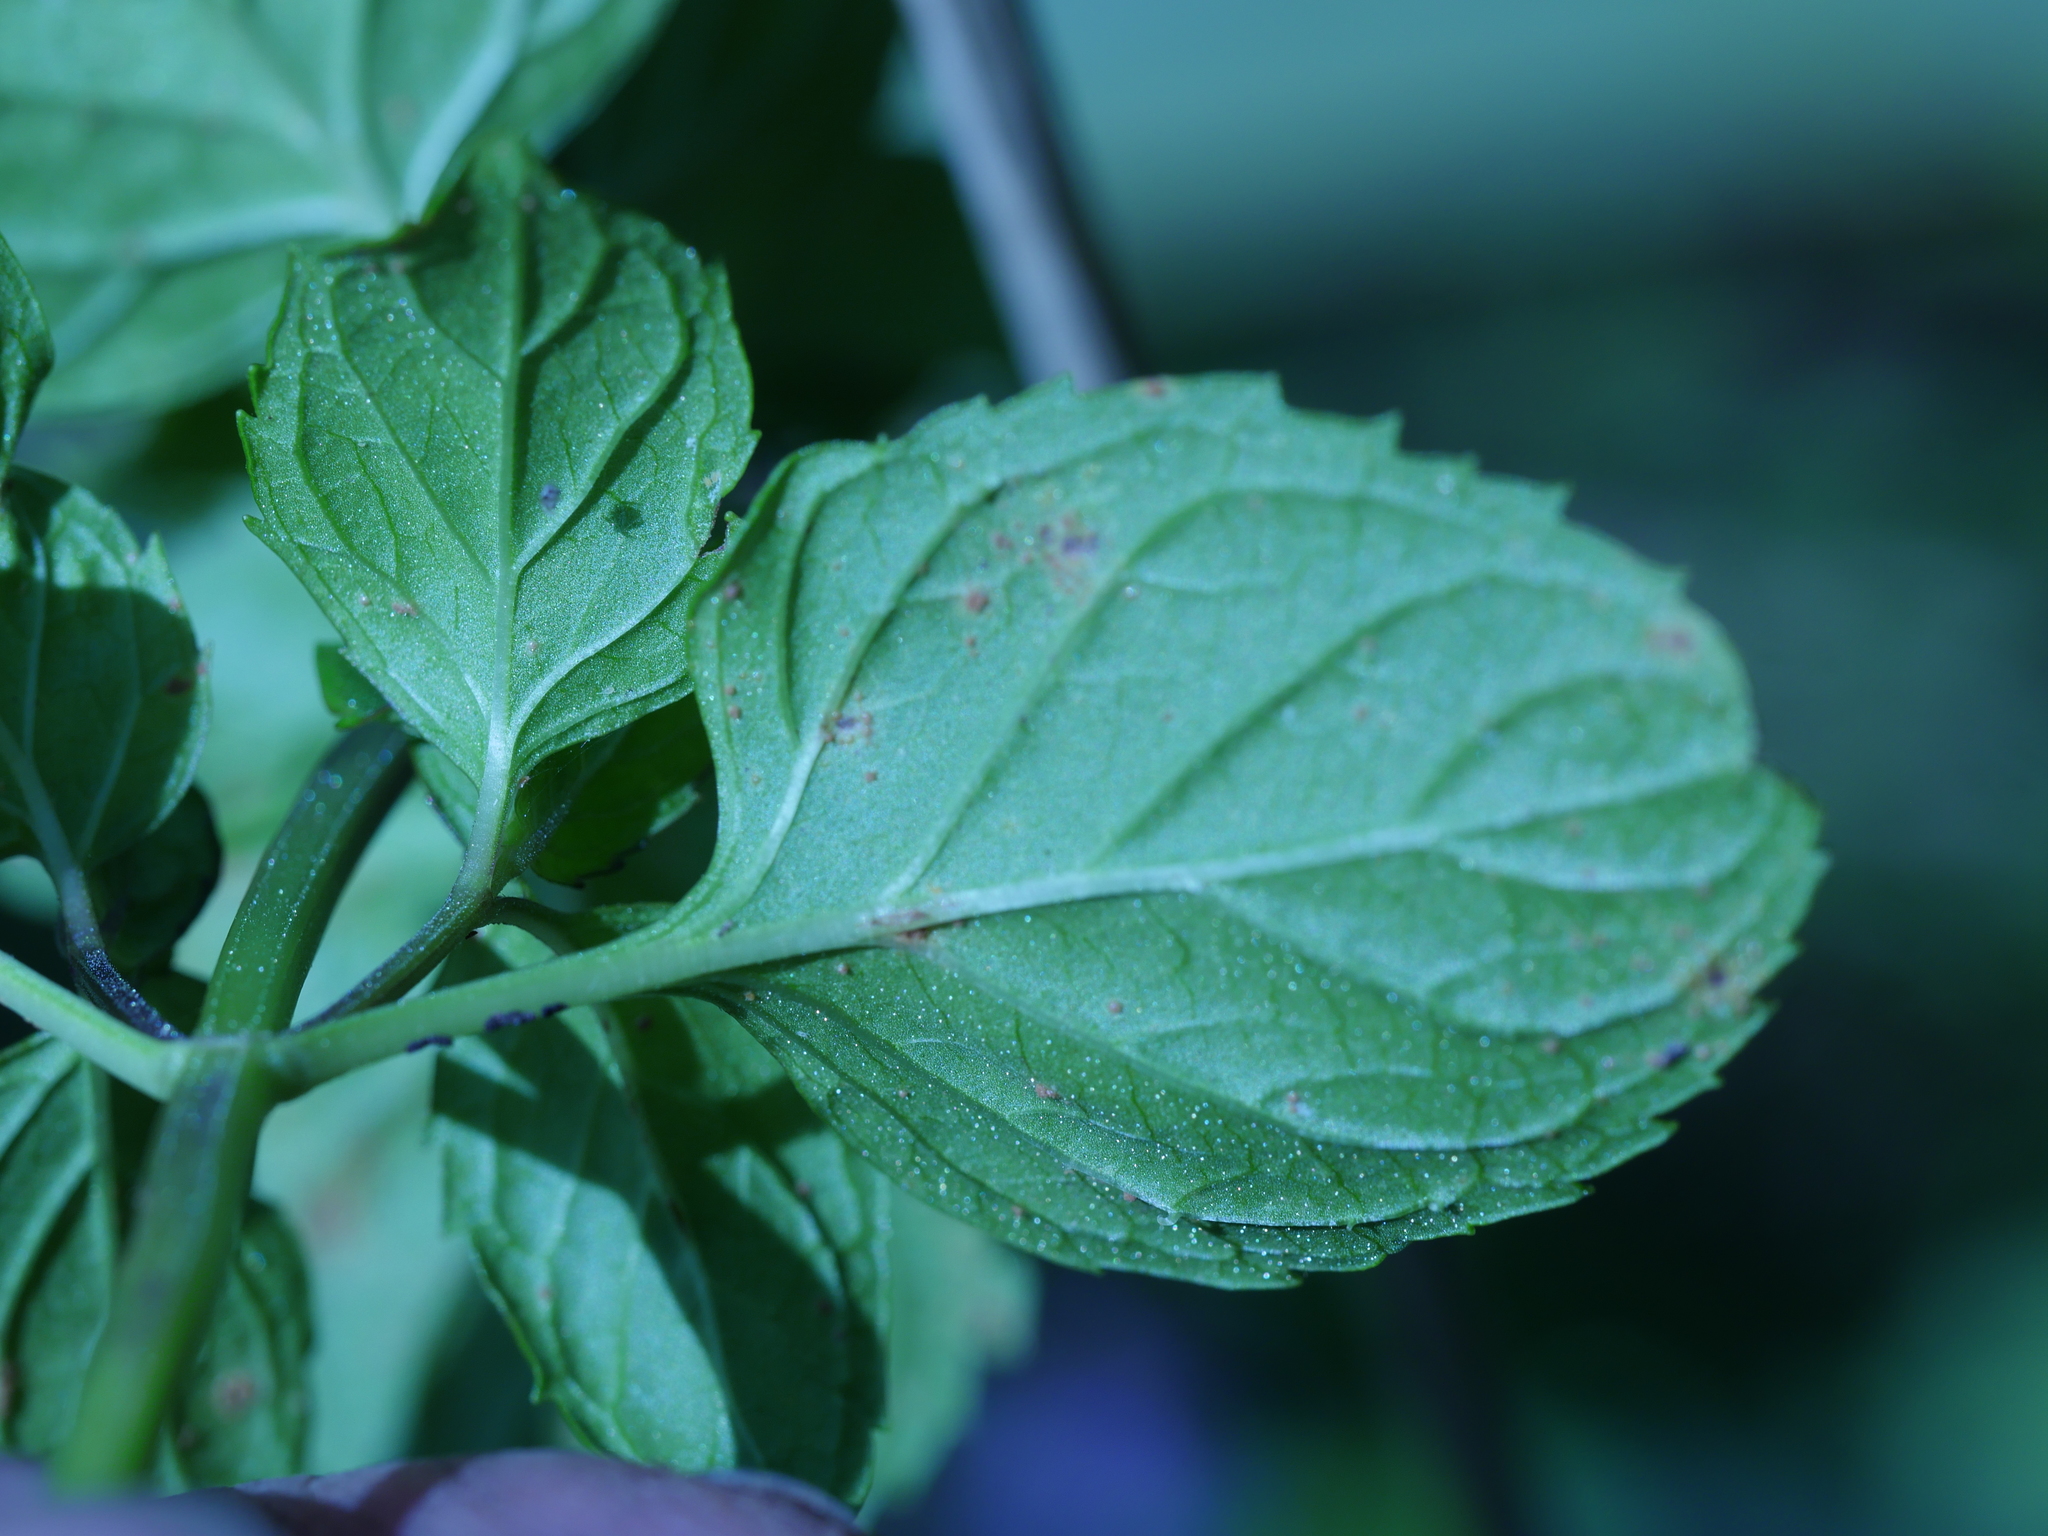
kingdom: Plantae
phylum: Tracheophyta
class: Magnoliopsida
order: Lamiales
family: Lamiaceae
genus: Mentha
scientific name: Mentha aquatica
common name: Water mint
